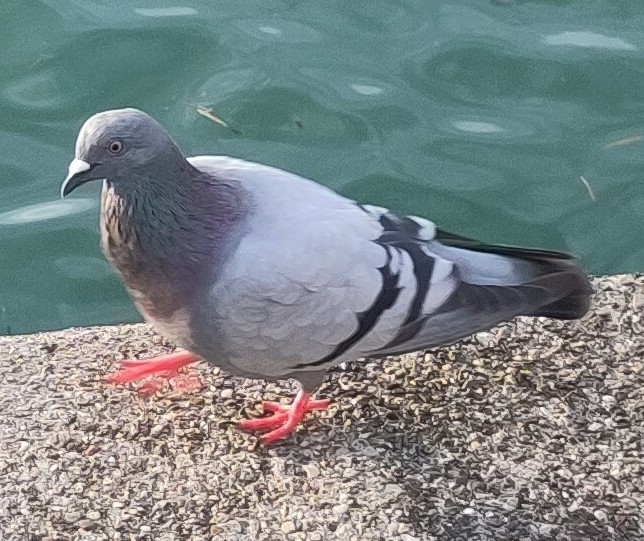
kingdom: Animalia
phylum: Chordata
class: Aves
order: Columbiformes
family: Columbidae
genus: Columba
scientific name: Columba livia
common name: Rock pigeon
